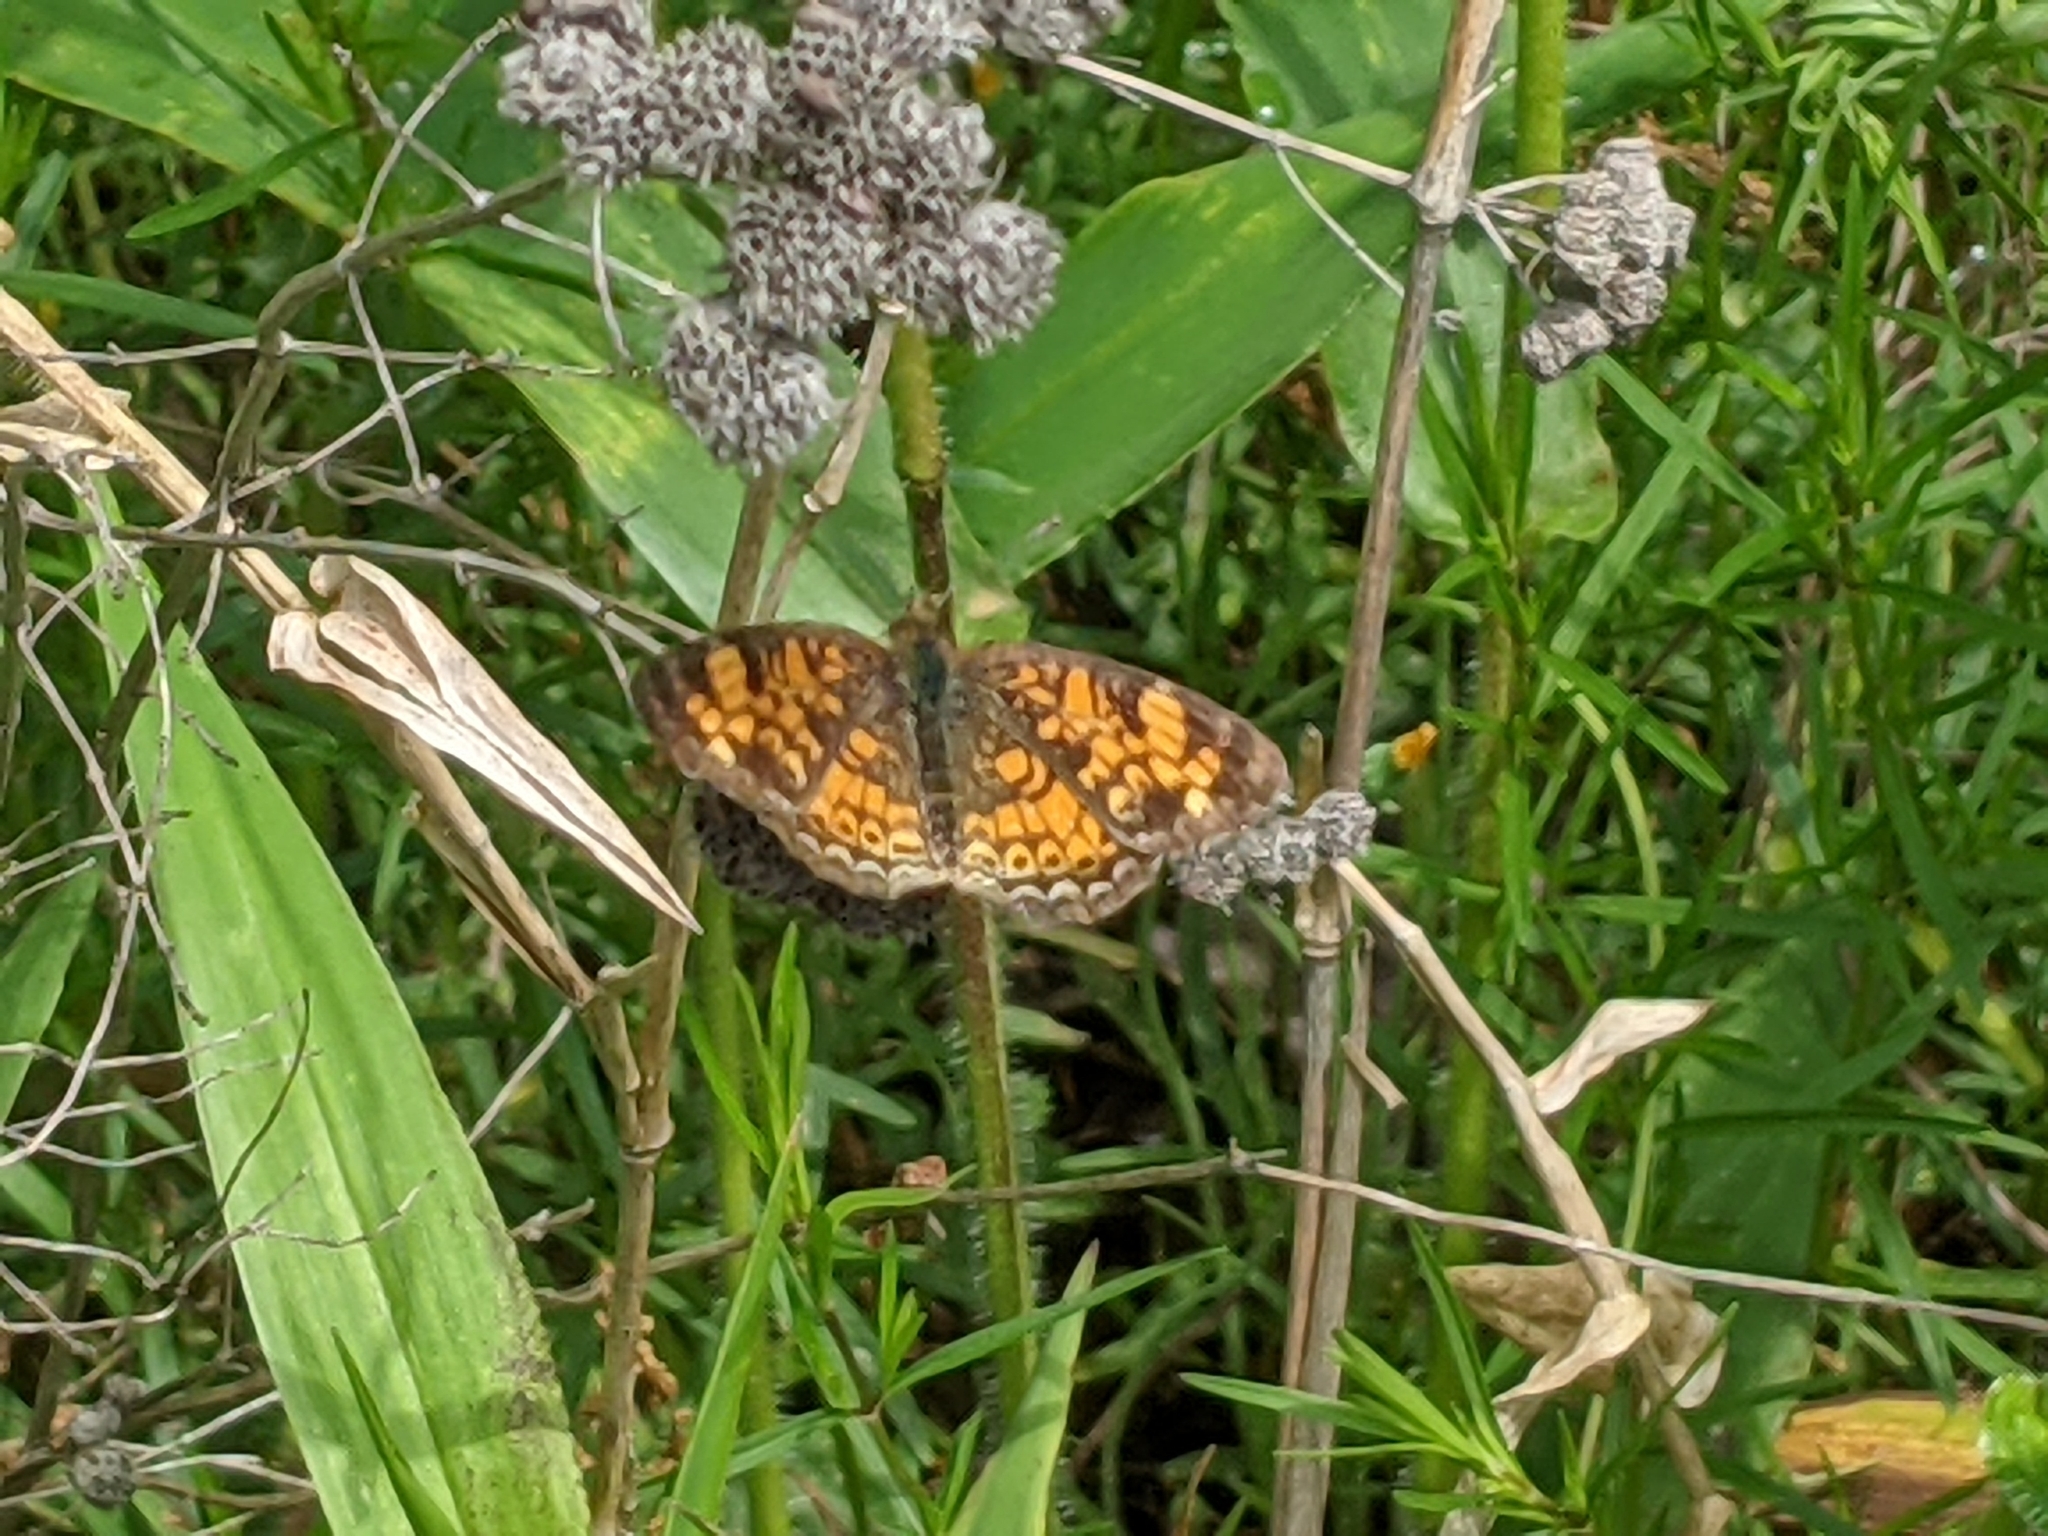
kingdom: Animalia
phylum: Arthropoda
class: Insecta
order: Lepidoptera
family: Nymphalidae
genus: Phyciodes
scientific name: Phyciodes tharos
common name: Pearl crescent
